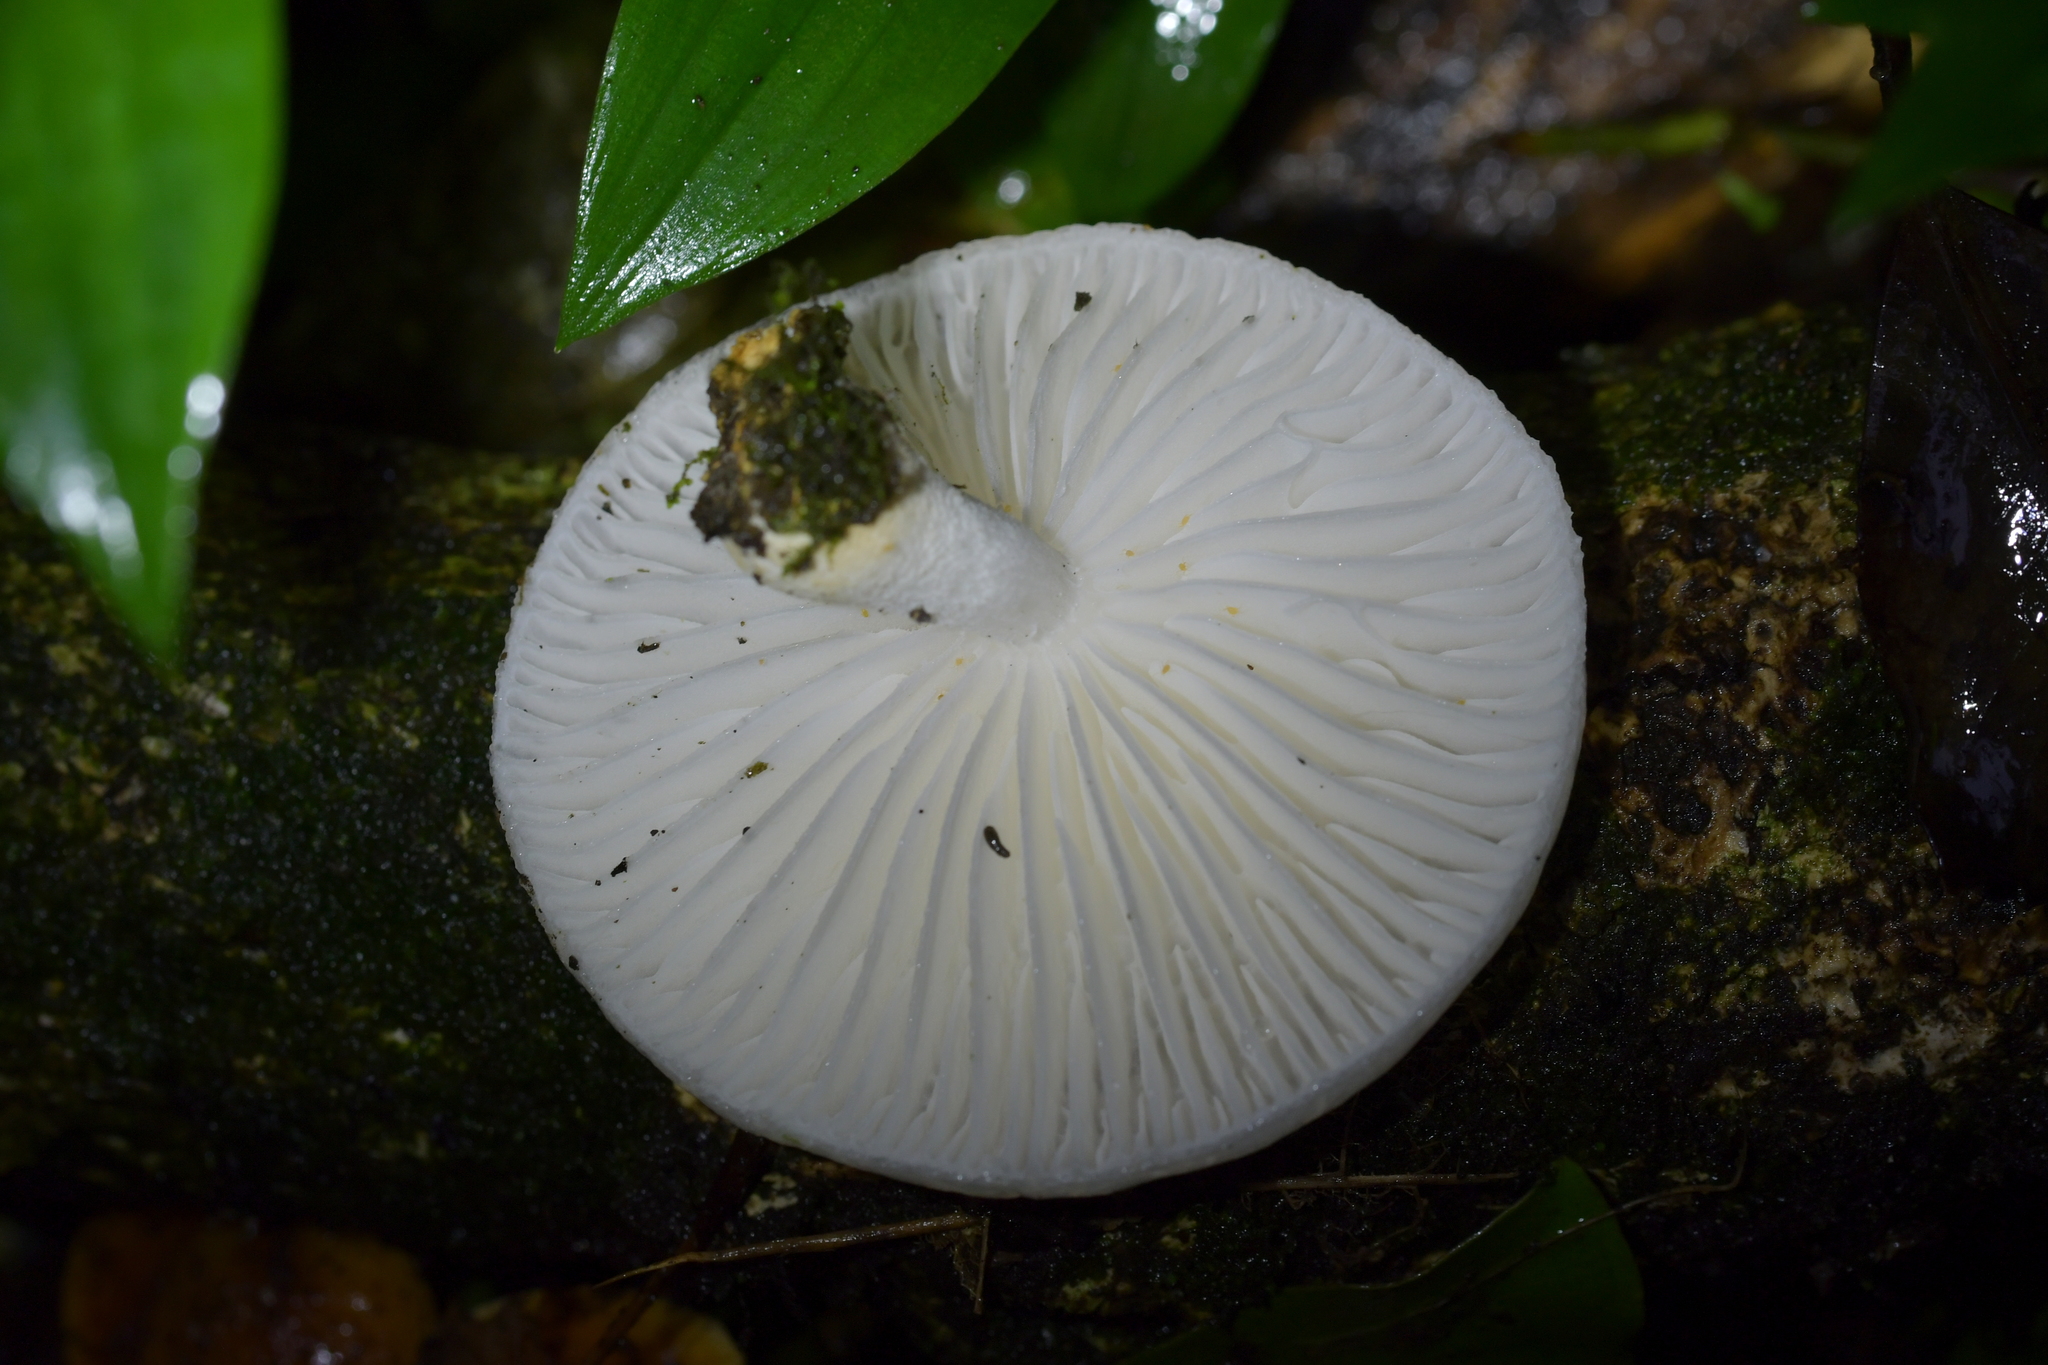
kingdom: Fungi
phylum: Basidiomycota
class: Agaricomycetes
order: Agaricales
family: Physalacriaceae
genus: Oudemansiella
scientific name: Oudemansiella australis
